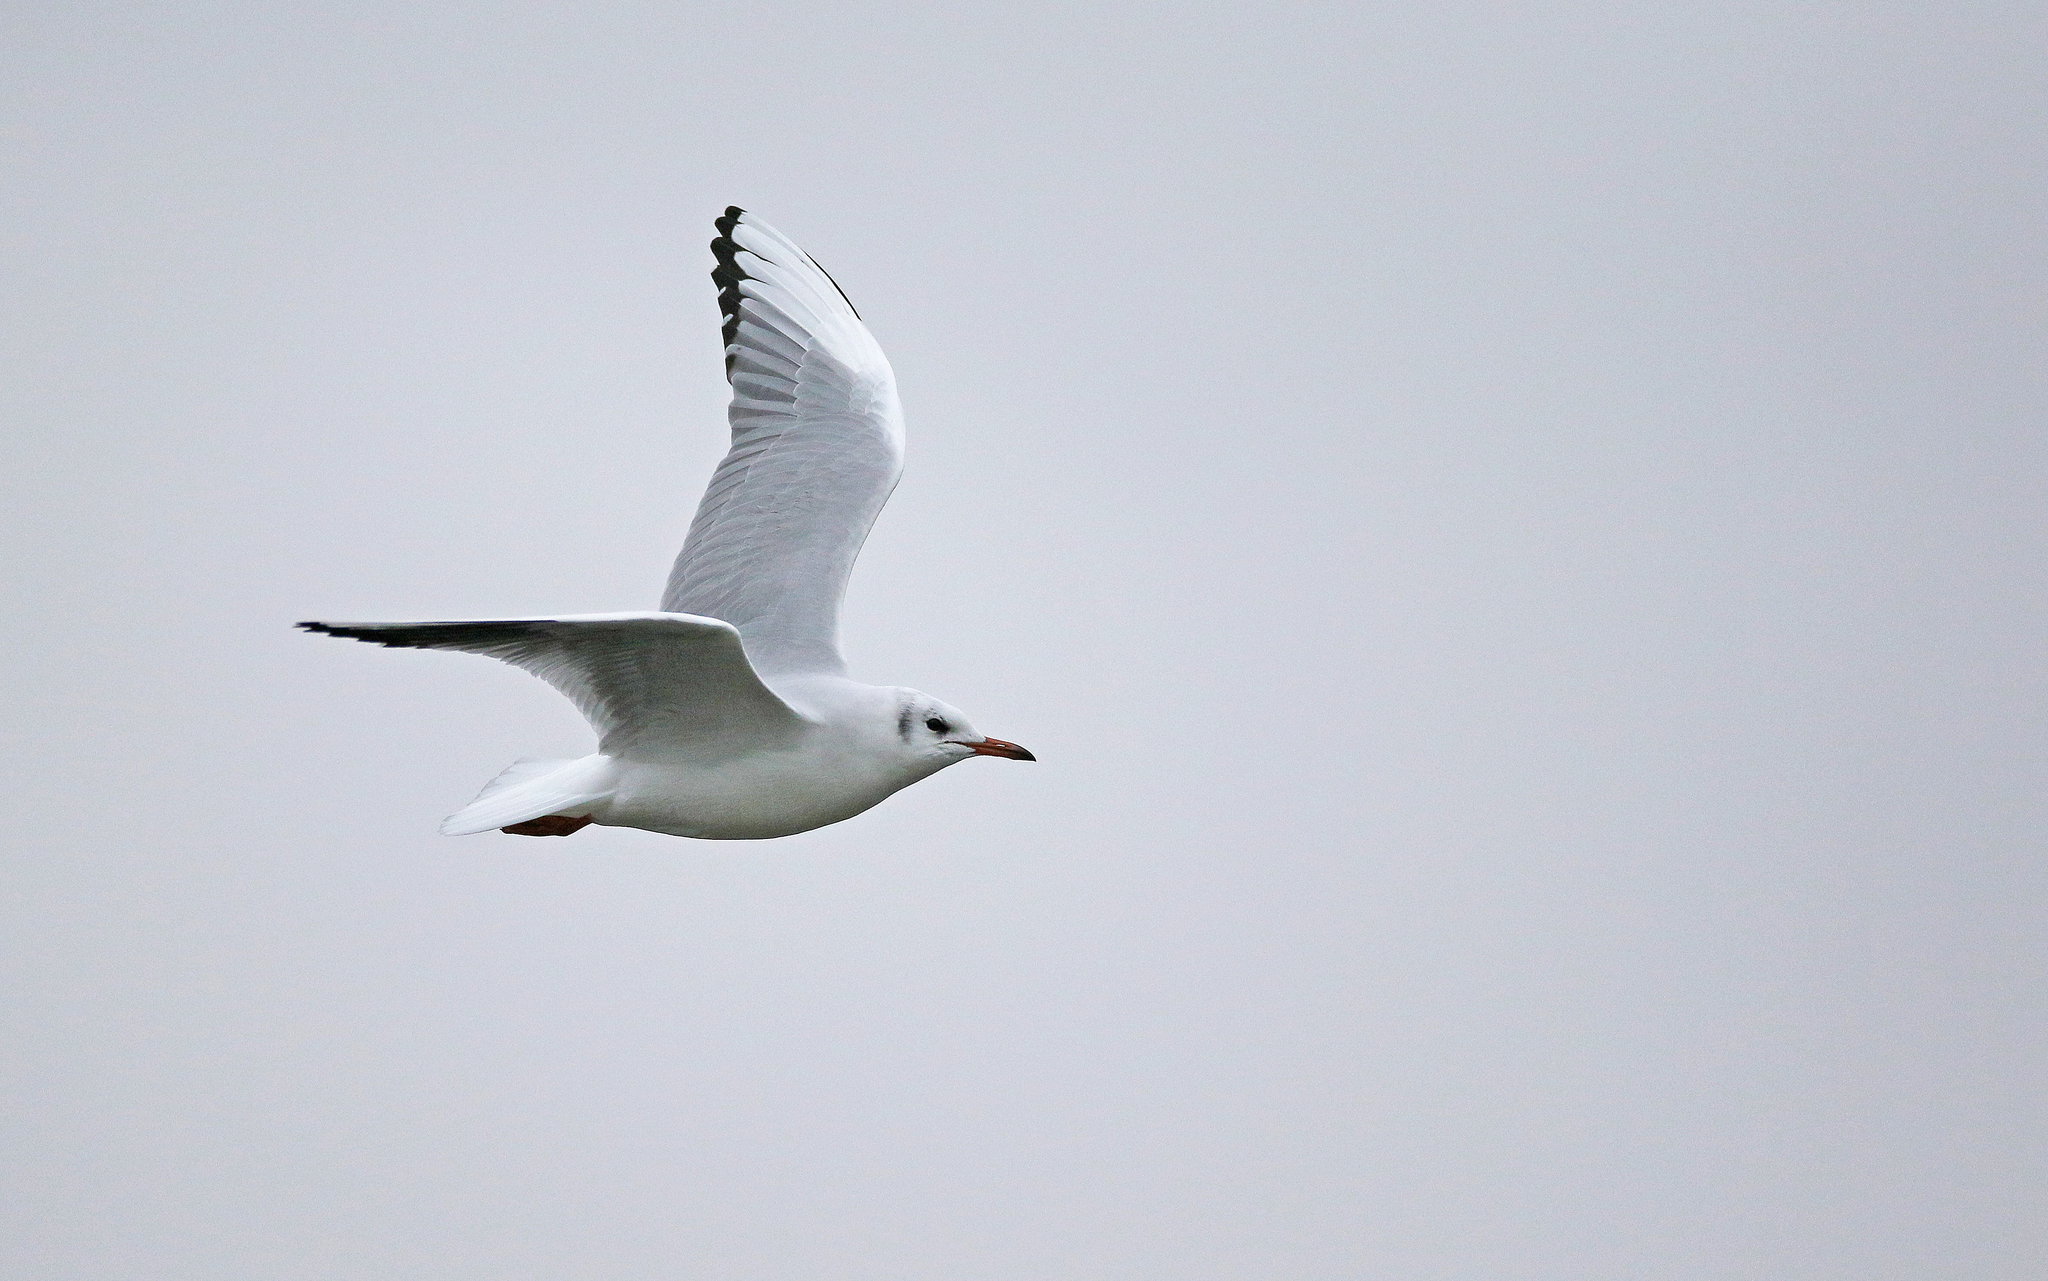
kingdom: Animalia
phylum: Chordata
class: Aves
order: Charadriiformes
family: Laridae
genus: Chroicocephalus
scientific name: Chroicocephalus ridibundus
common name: Black-headed gull
